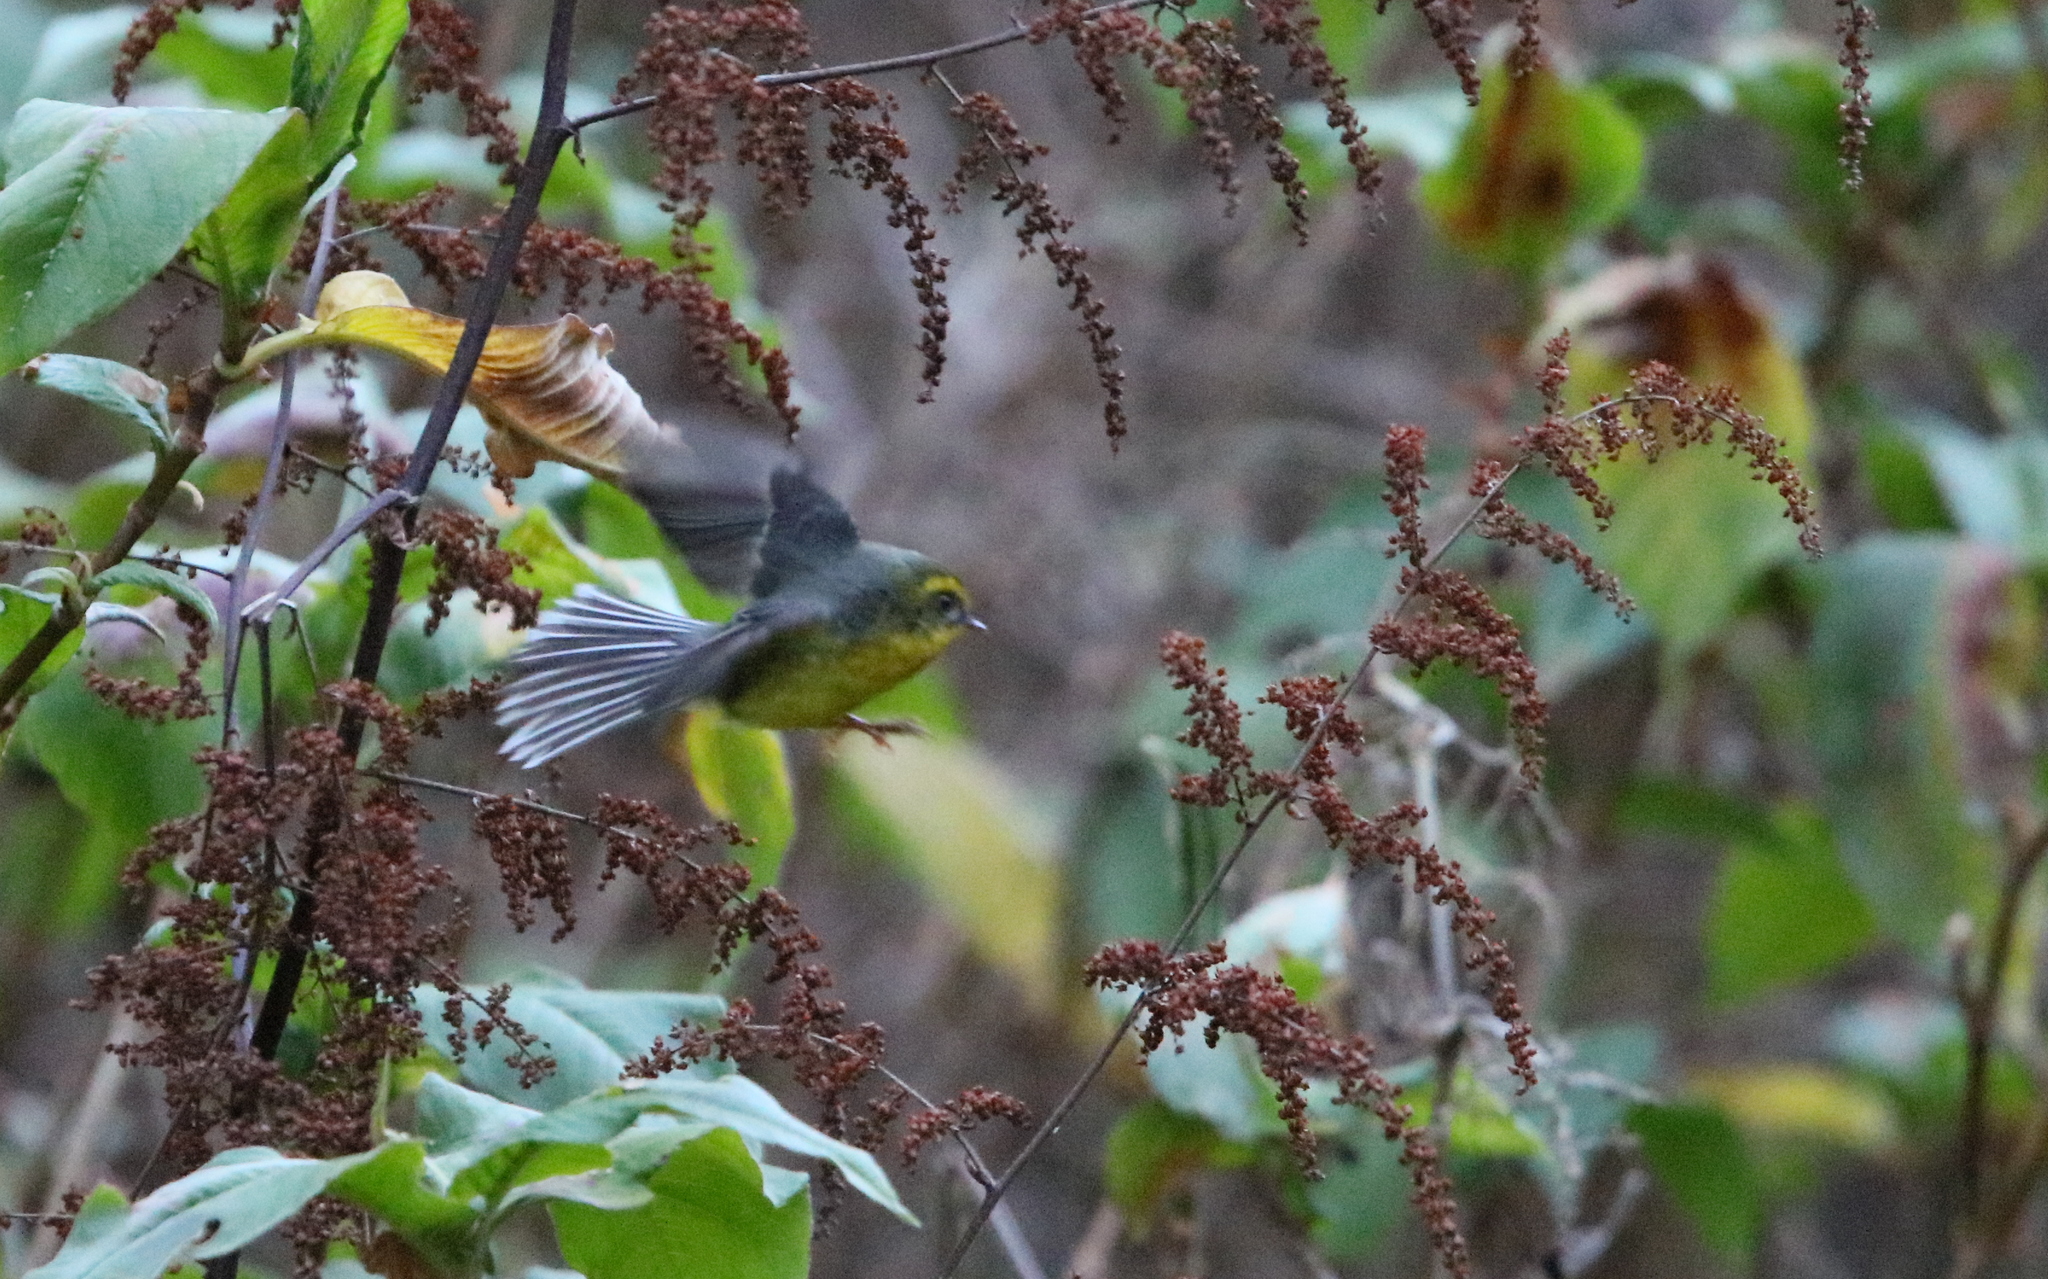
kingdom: Animalia
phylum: Chordata
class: Aves
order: Passeriformes
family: Stenostiridae
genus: Chelidorhynx
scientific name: Chelidorhynx hypoxantha
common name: Yellow-bellied fantail
